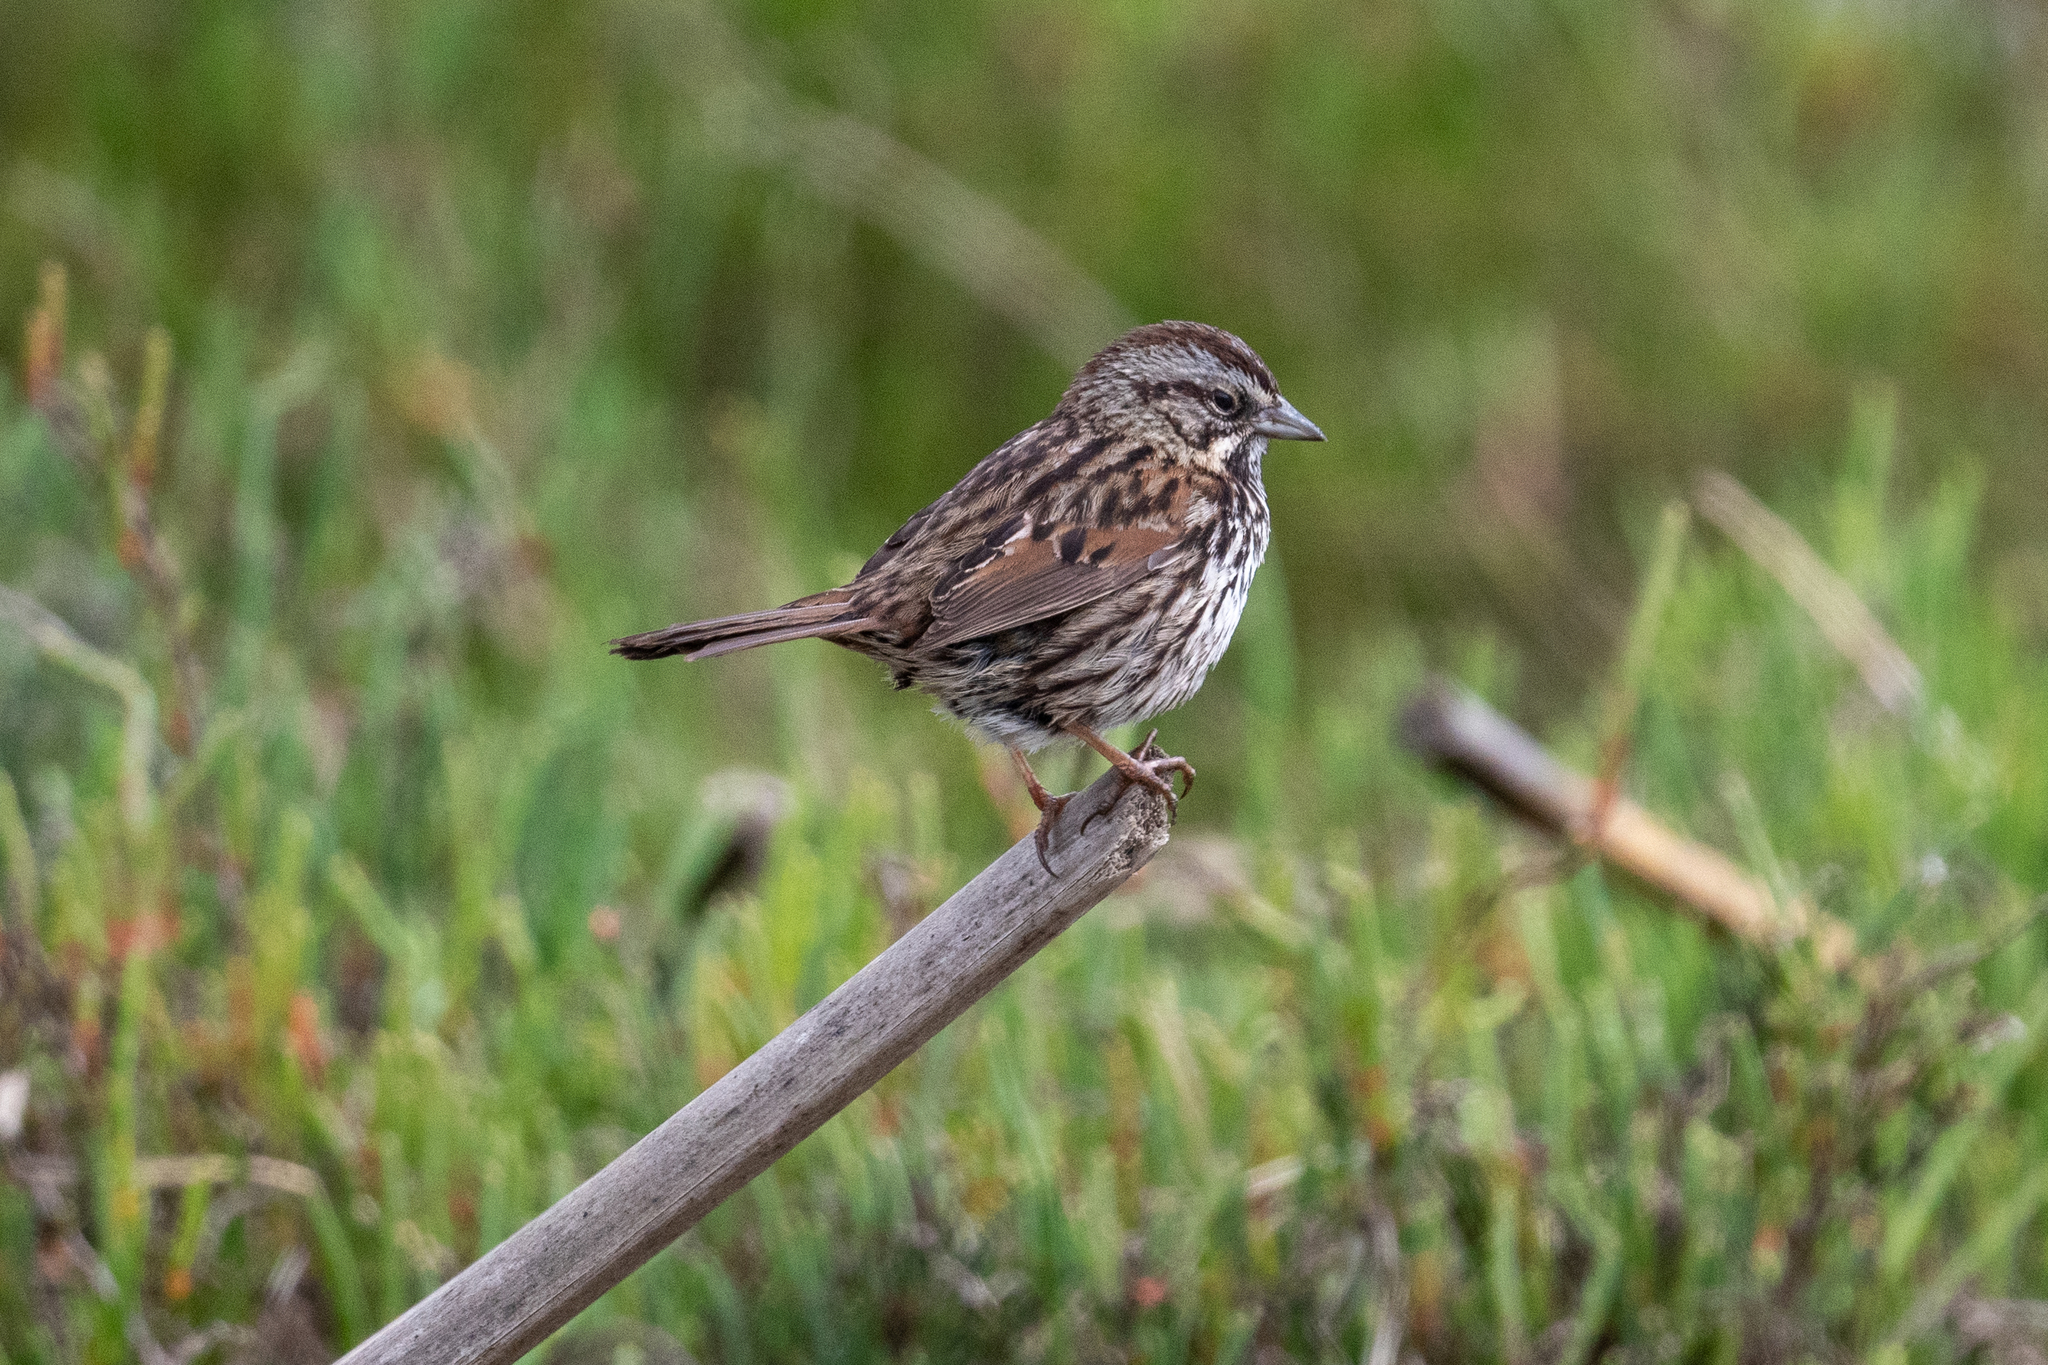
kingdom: Animalia
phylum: Chordata
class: Aves
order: Passeriformes
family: Passerellidae
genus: Melospiza
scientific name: Melospiza melodia
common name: Song sparrow
